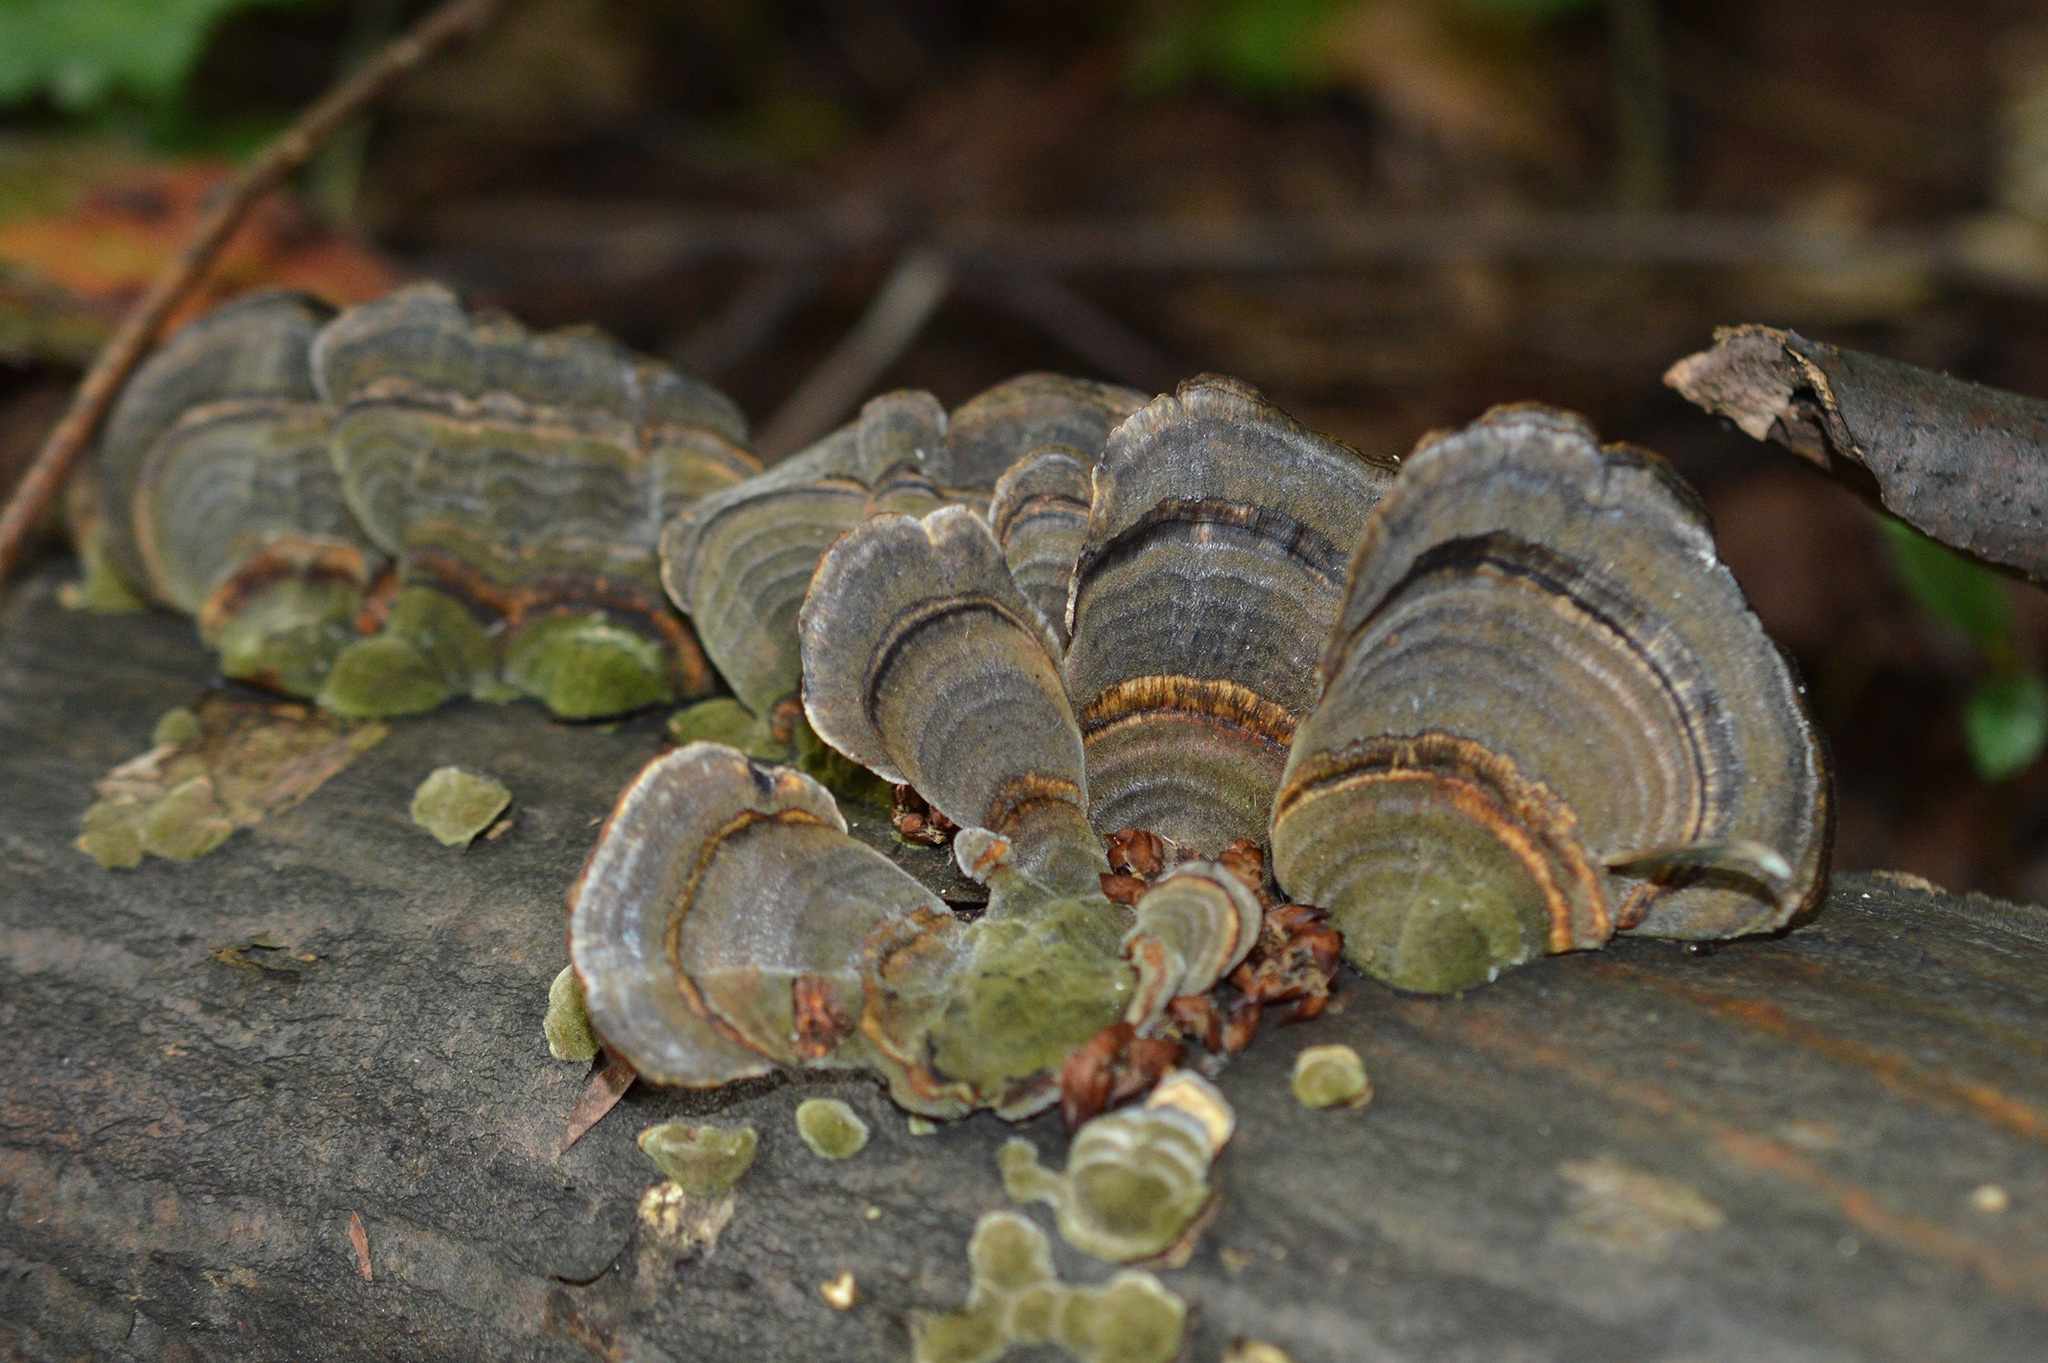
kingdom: Fungi
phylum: Basidiomycota
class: Agaricomycetes
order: Polyporales
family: Polyporaceae
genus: Trametes
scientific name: Trametes versicolor
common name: Turkeytail
